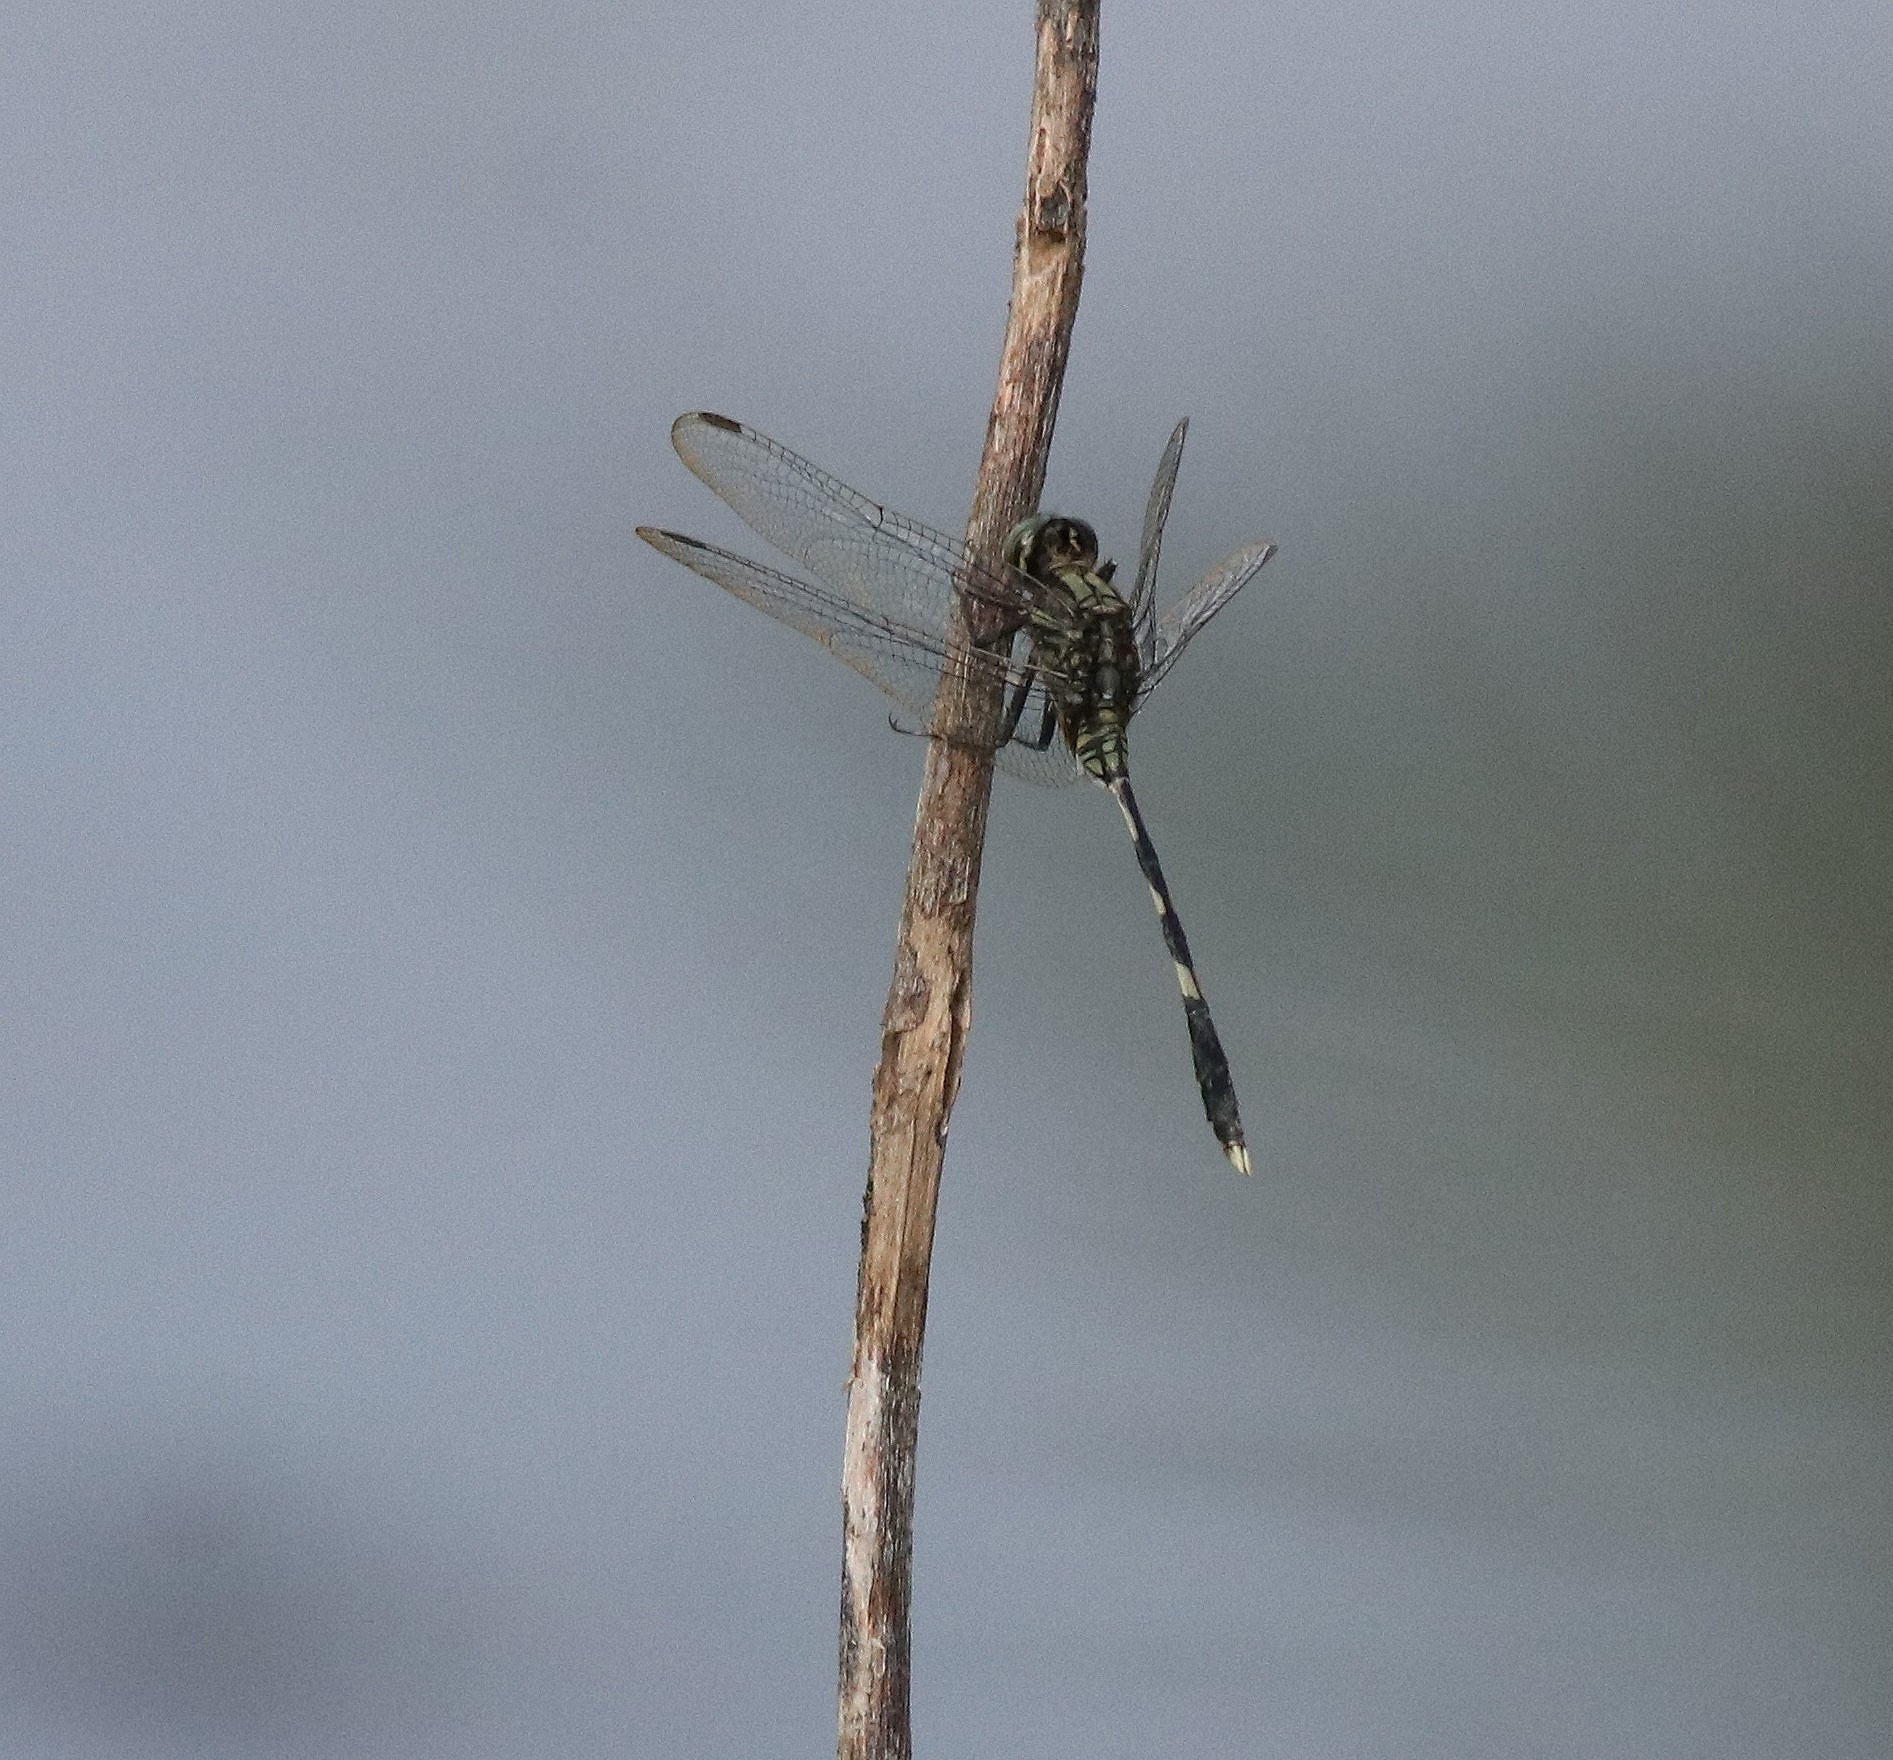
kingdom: Animalia
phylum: Arthropoda
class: Insecta
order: Odonata
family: Libellulidae
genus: Orthetrum
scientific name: Orthetrum sabina
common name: Slender skimmer
